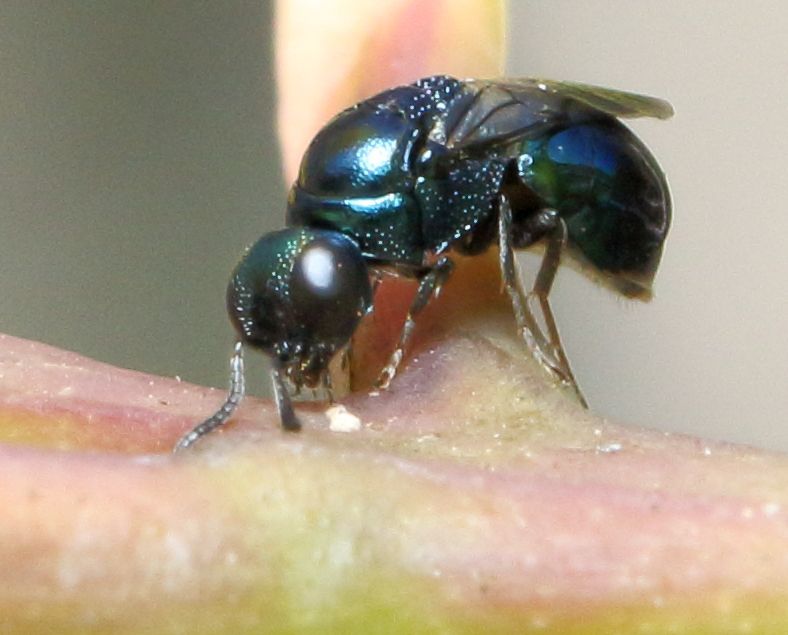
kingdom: Animalia
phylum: Arthropoda
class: Insecta
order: Hymenoptera
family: Chrysididae
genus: Holophris
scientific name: Holophris
